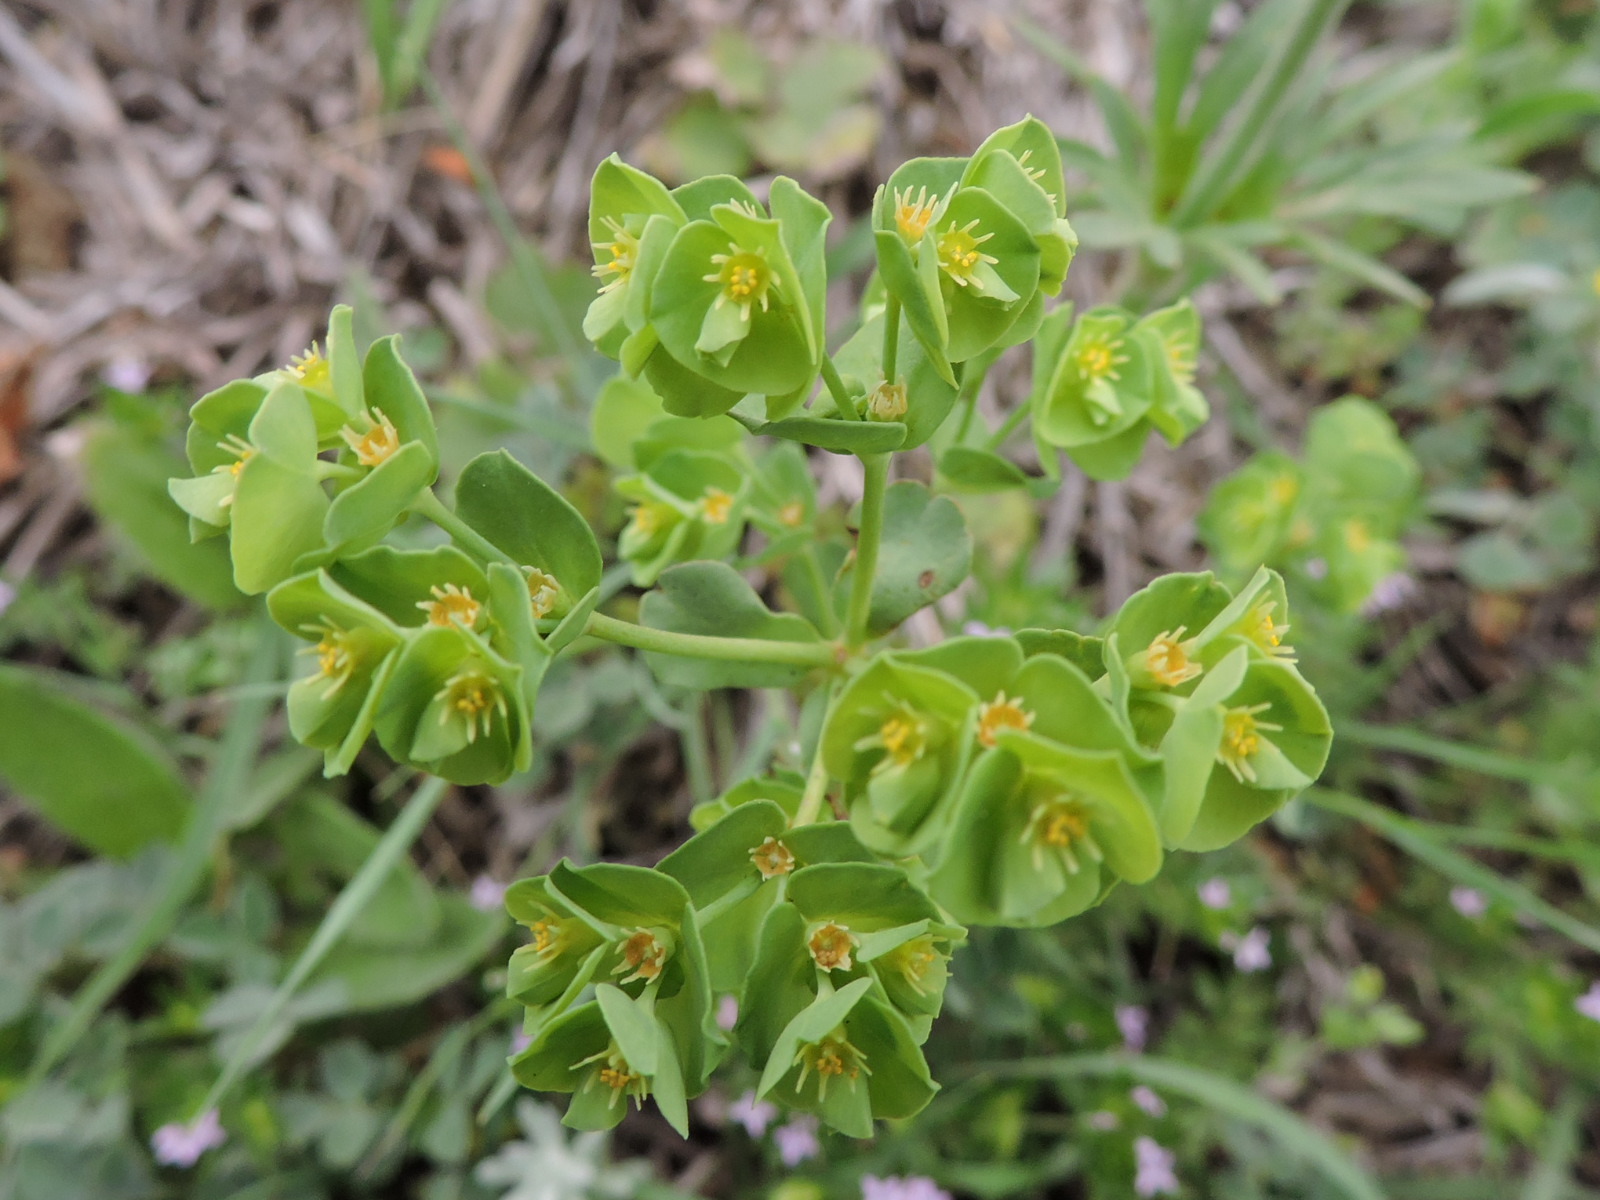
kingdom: Plantae
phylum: Tracheophyta
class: Magnoliopsida
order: Malpighiales
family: Euphorbiaceae
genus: Euphorbia
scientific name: Euphorbia longicruris
